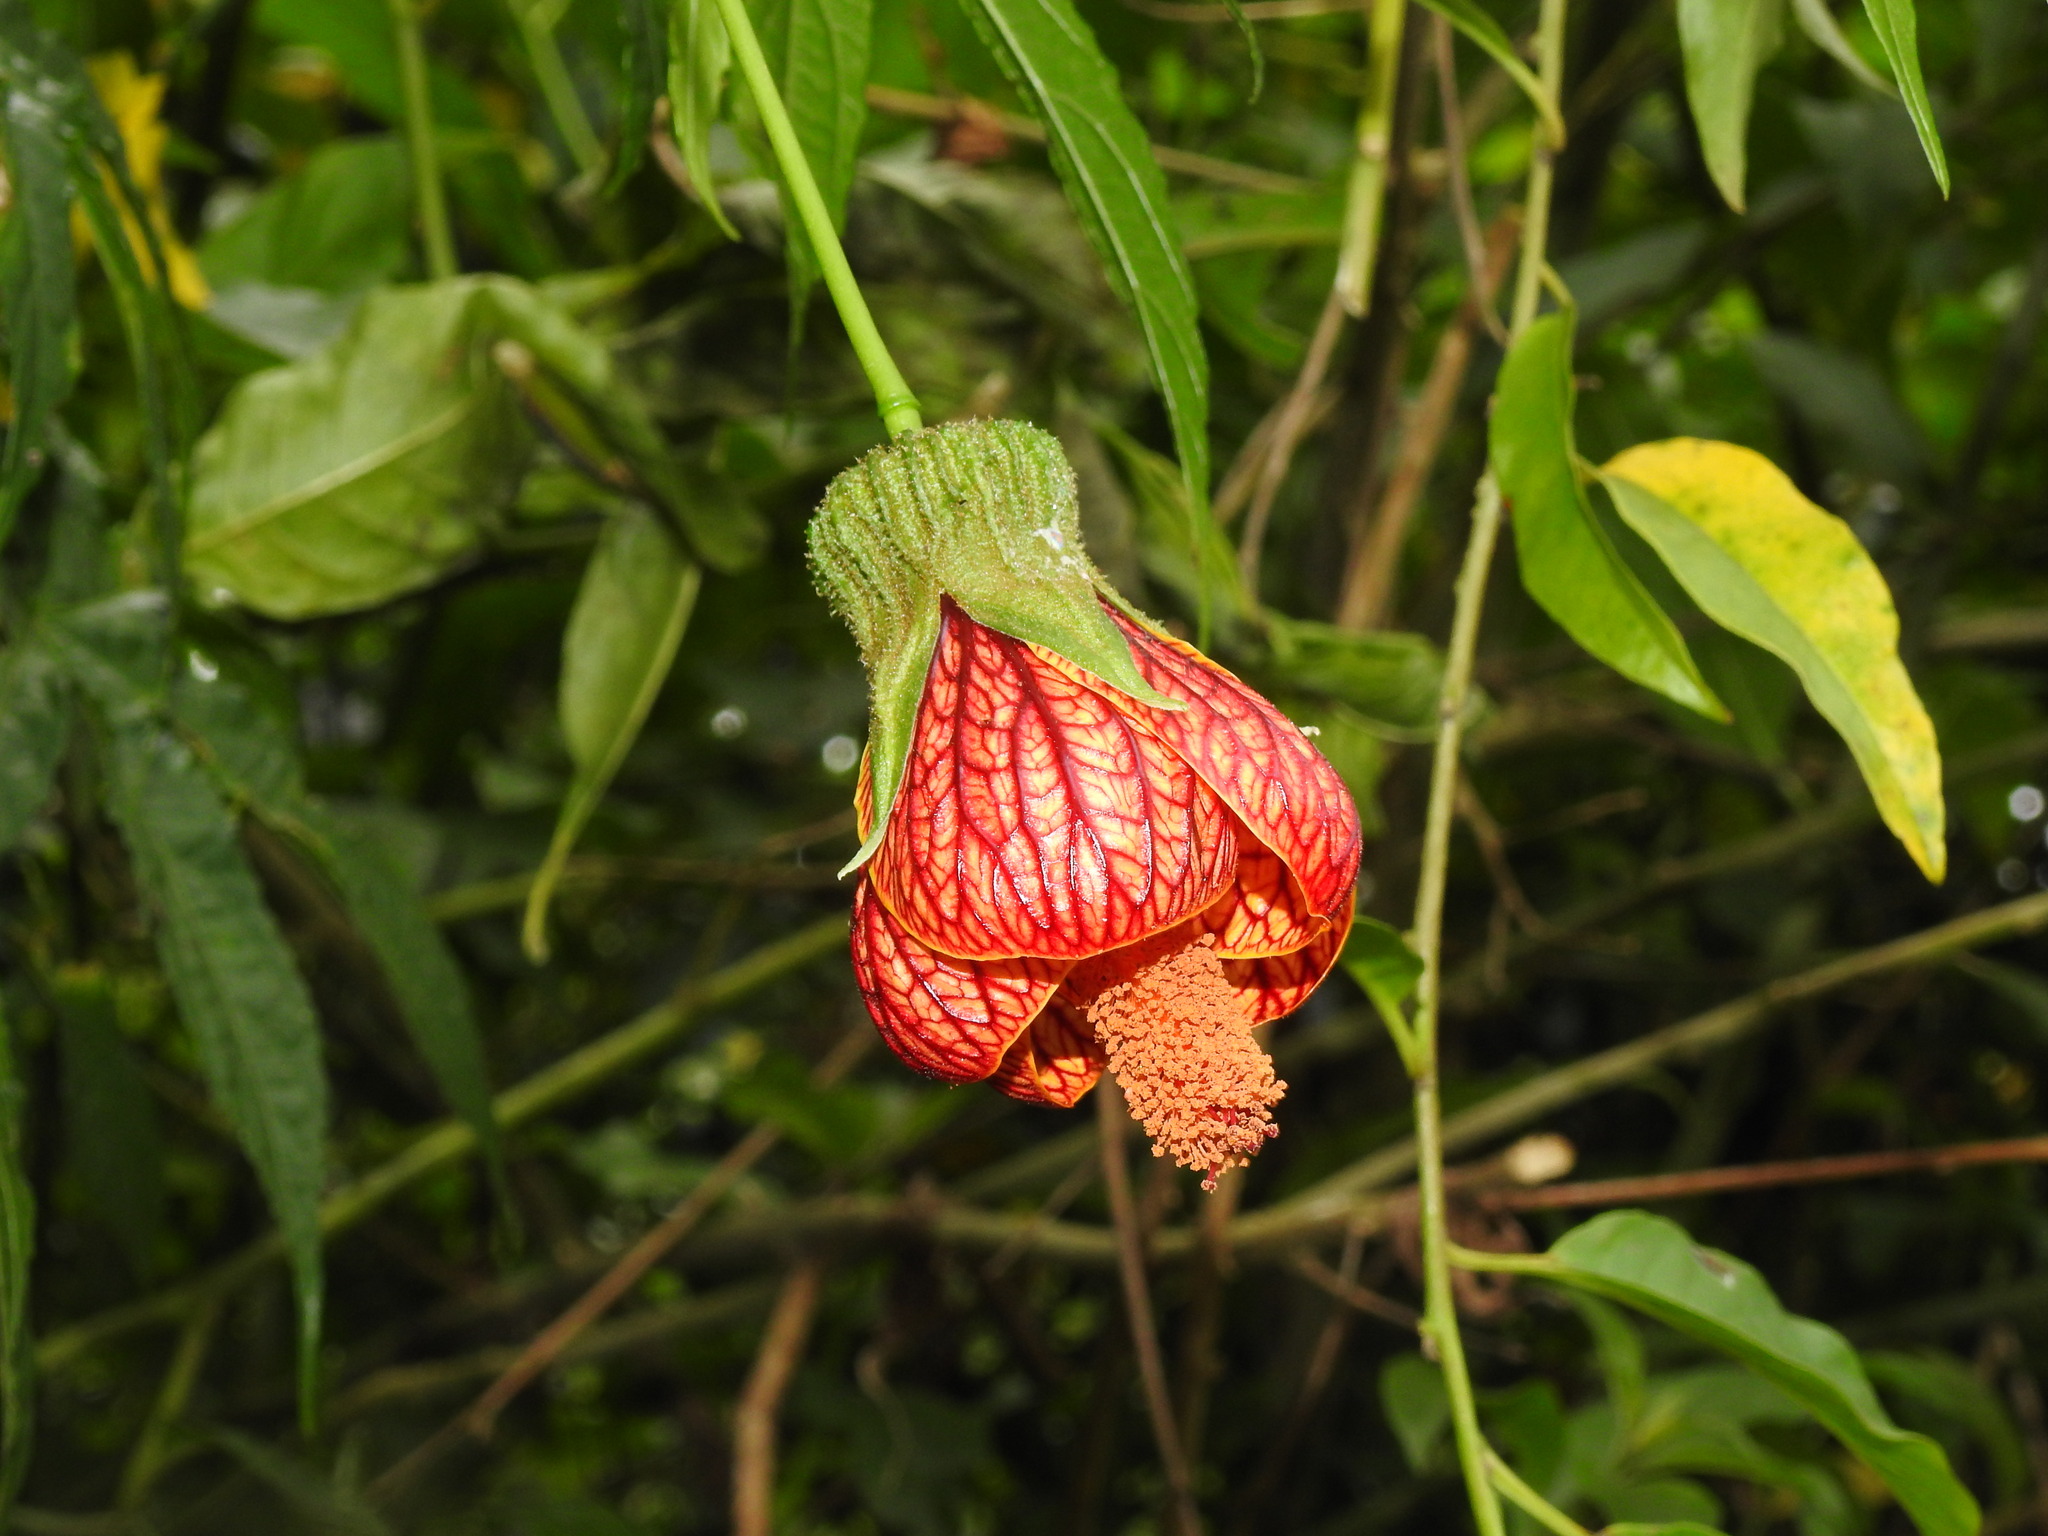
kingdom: Plantae
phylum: Tracheophyta
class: Magnoliopsida
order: Malvales
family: Malvaceae
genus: Callianthe
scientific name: Callianthe picta
